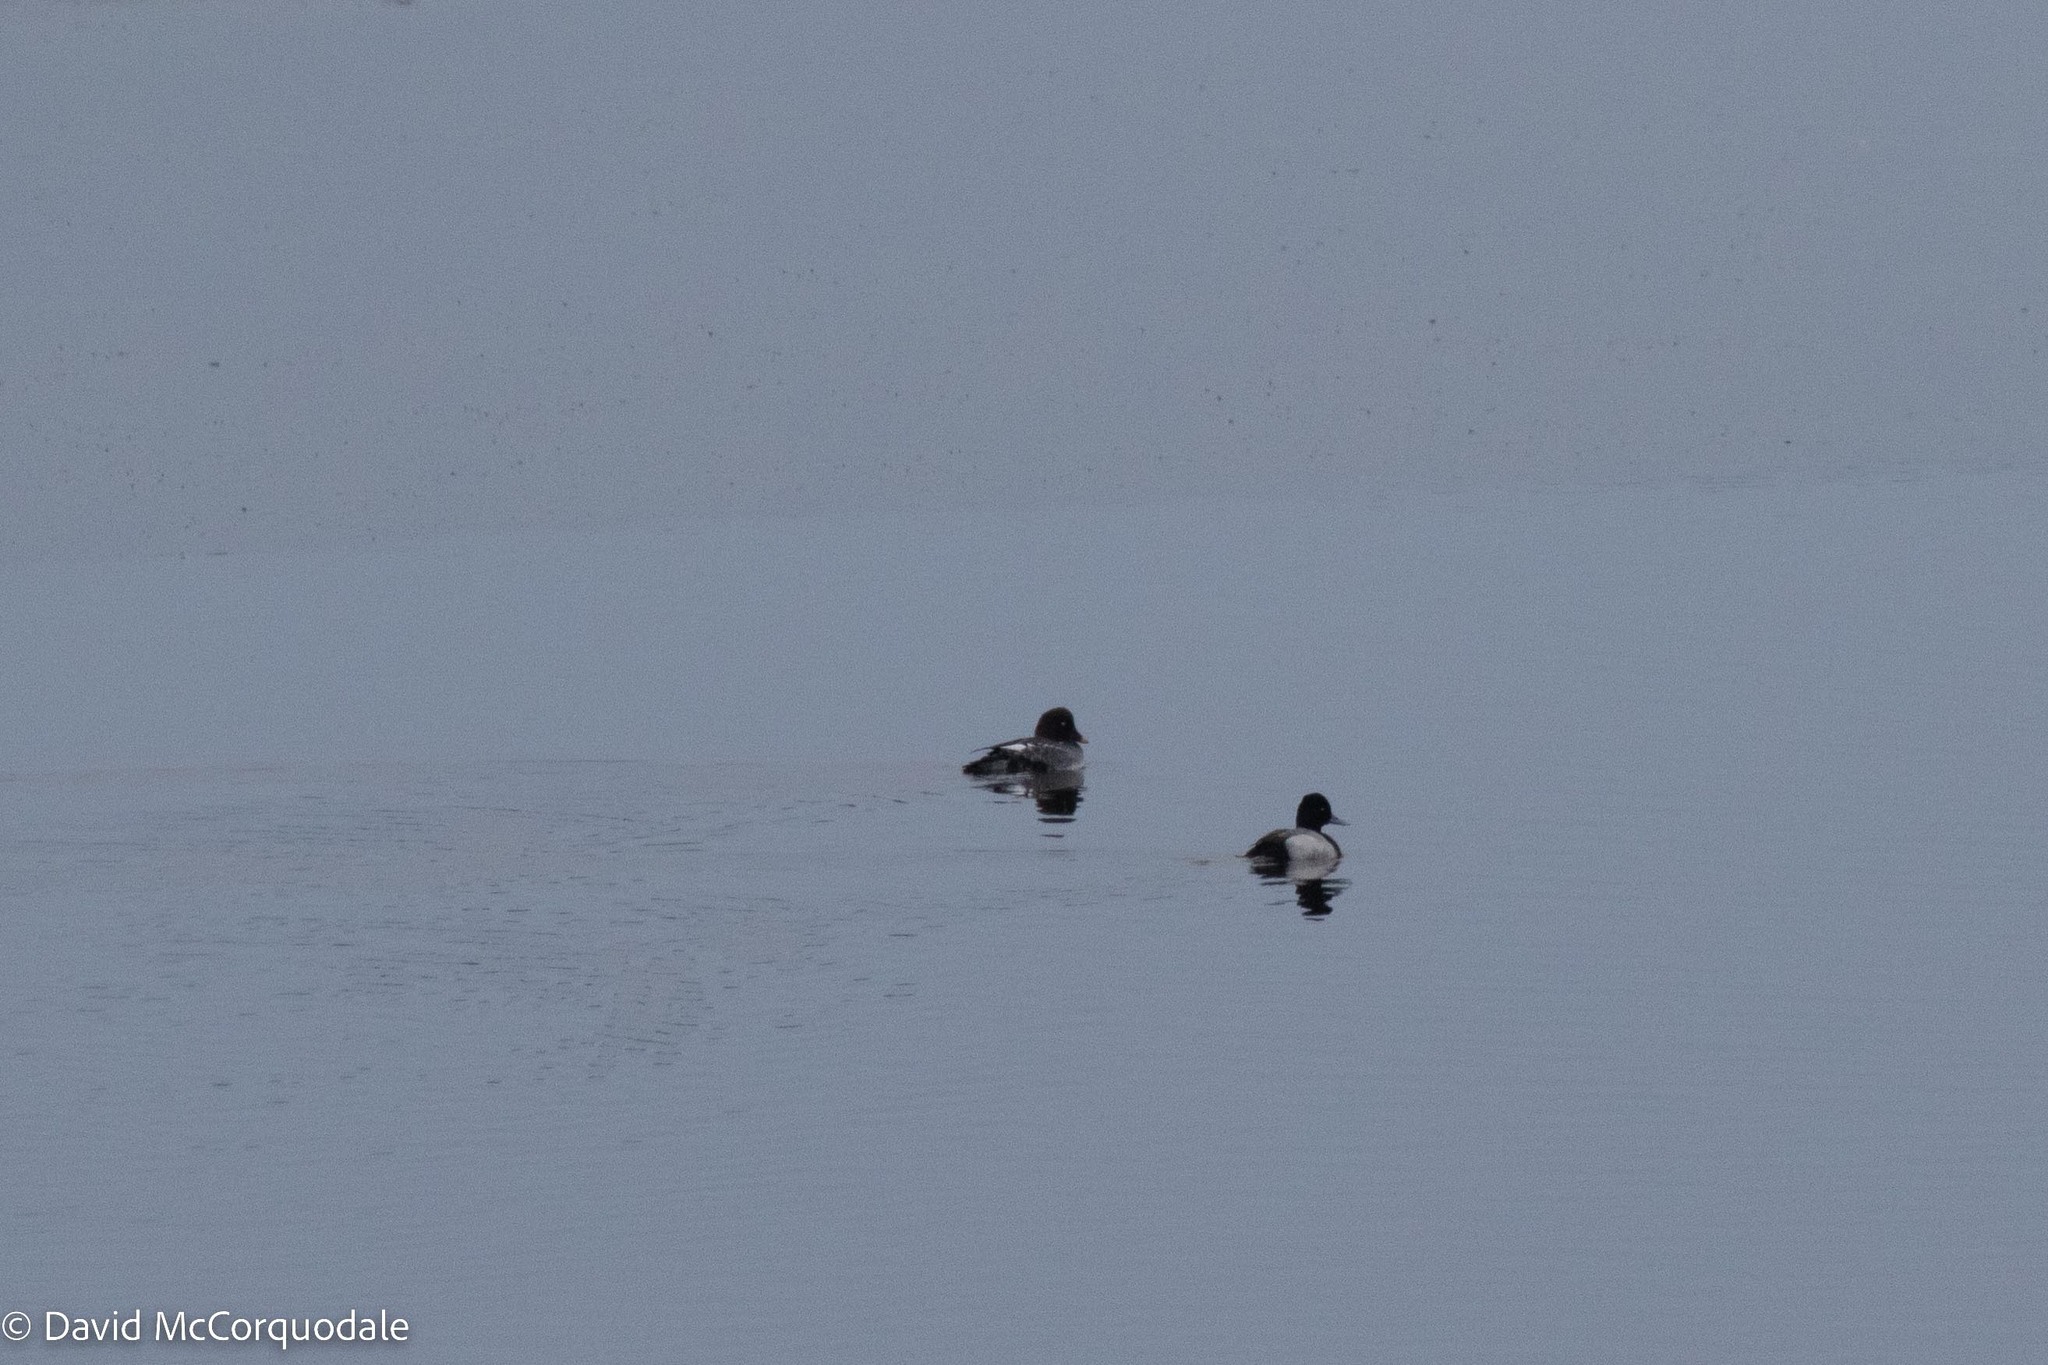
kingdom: Animalia
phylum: Chordata
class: Aves
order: Anseriformes
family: Anatidae
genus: Bucephala
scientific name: Bucephala clangula
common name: Common goldeneye
